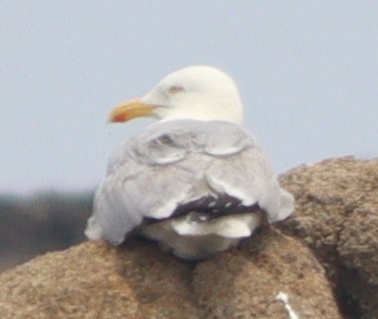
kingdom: Animalia
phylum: Chordata
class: Aves
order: Charadriiformes
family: Laridae
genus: Larus
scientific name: Larus argentatus
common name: Herring gull
